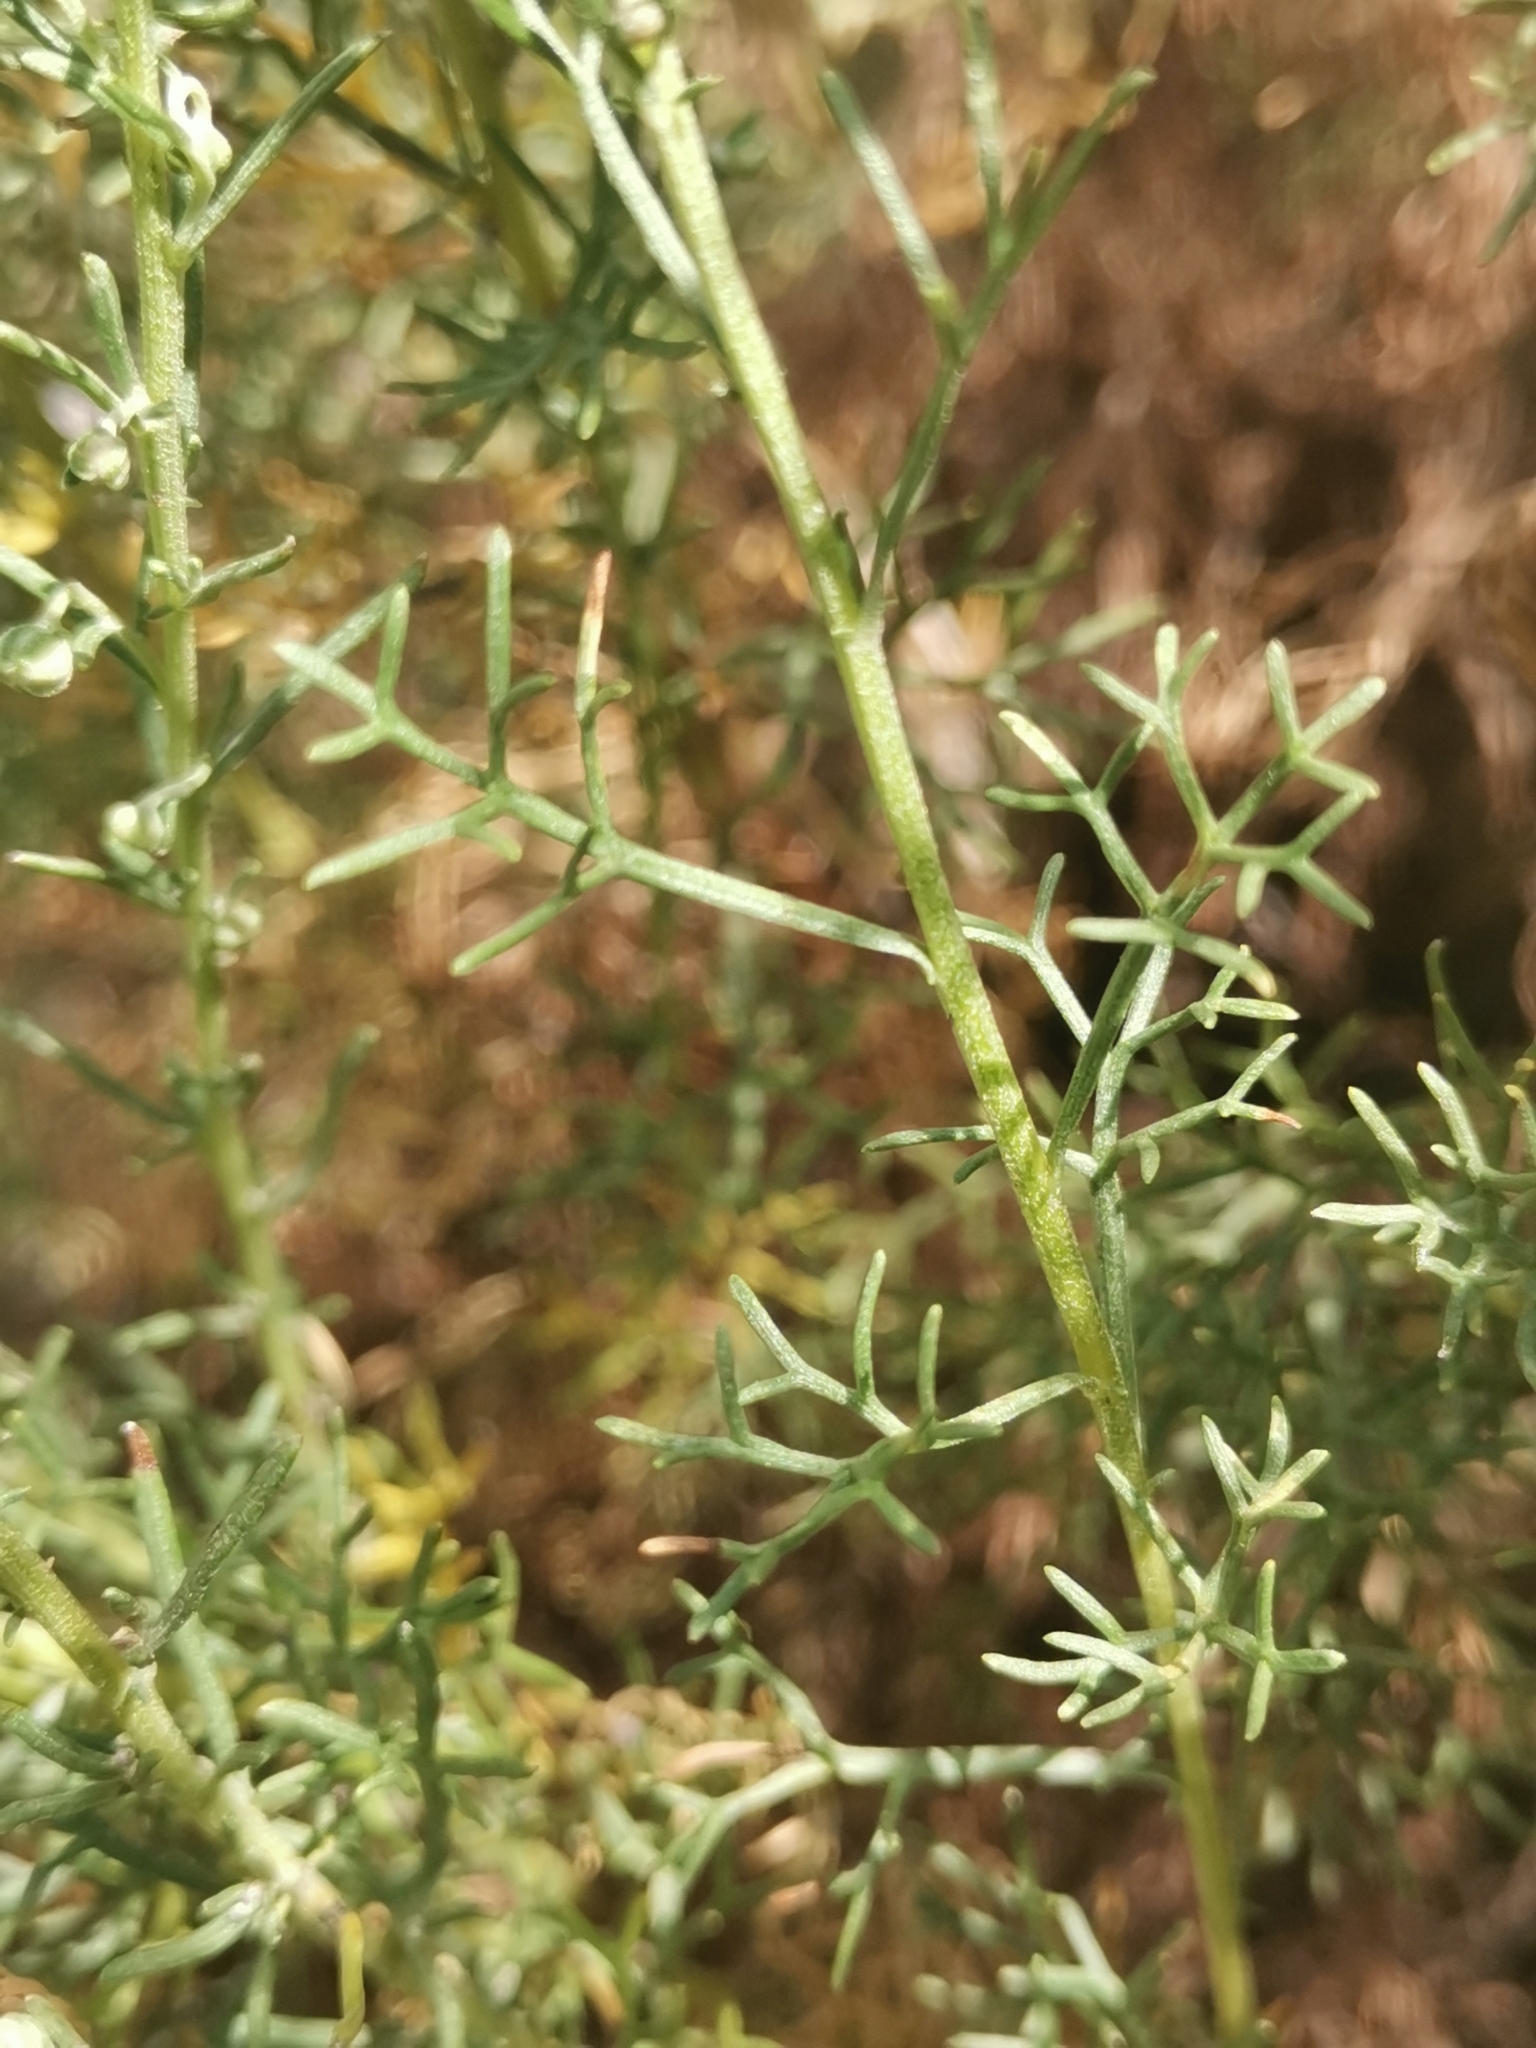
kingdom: Plantae
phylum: Tracheophyta
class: Magnoliopsida
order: Asterales
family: Asteraceae
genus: Artemisia
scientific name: Artemisia alba
